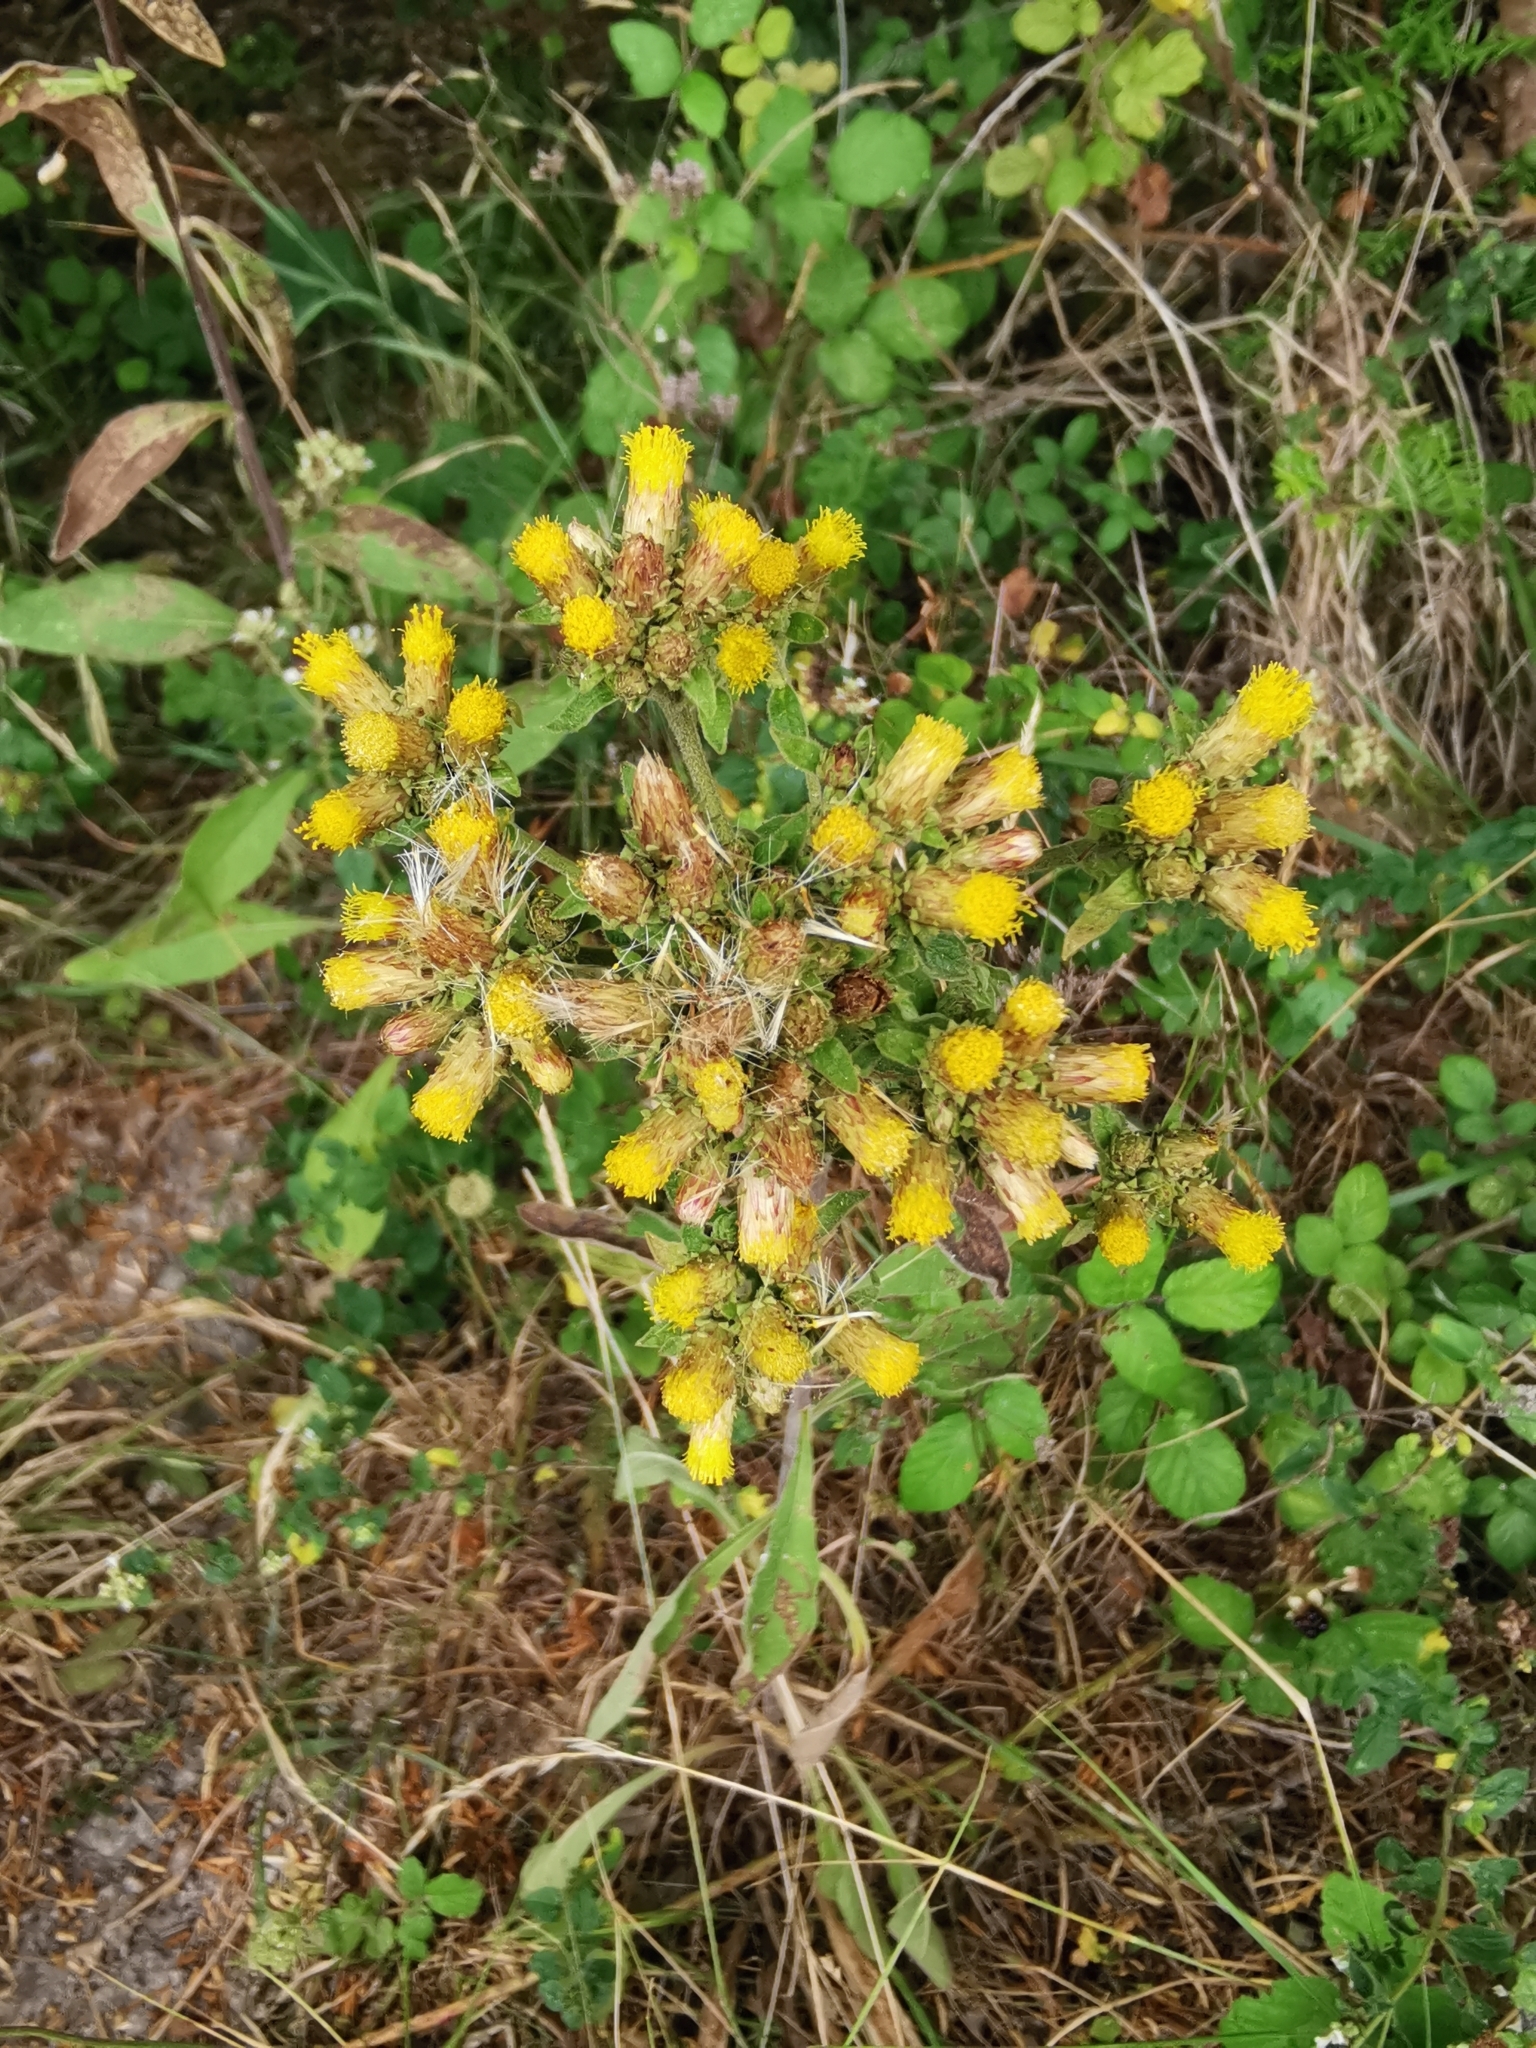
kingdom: Plantae
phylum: Tracheophyta
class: Magnoliopsida
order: Asterales
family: Asteraceae
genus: Pentanema
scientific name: Pentanema squarrosum
